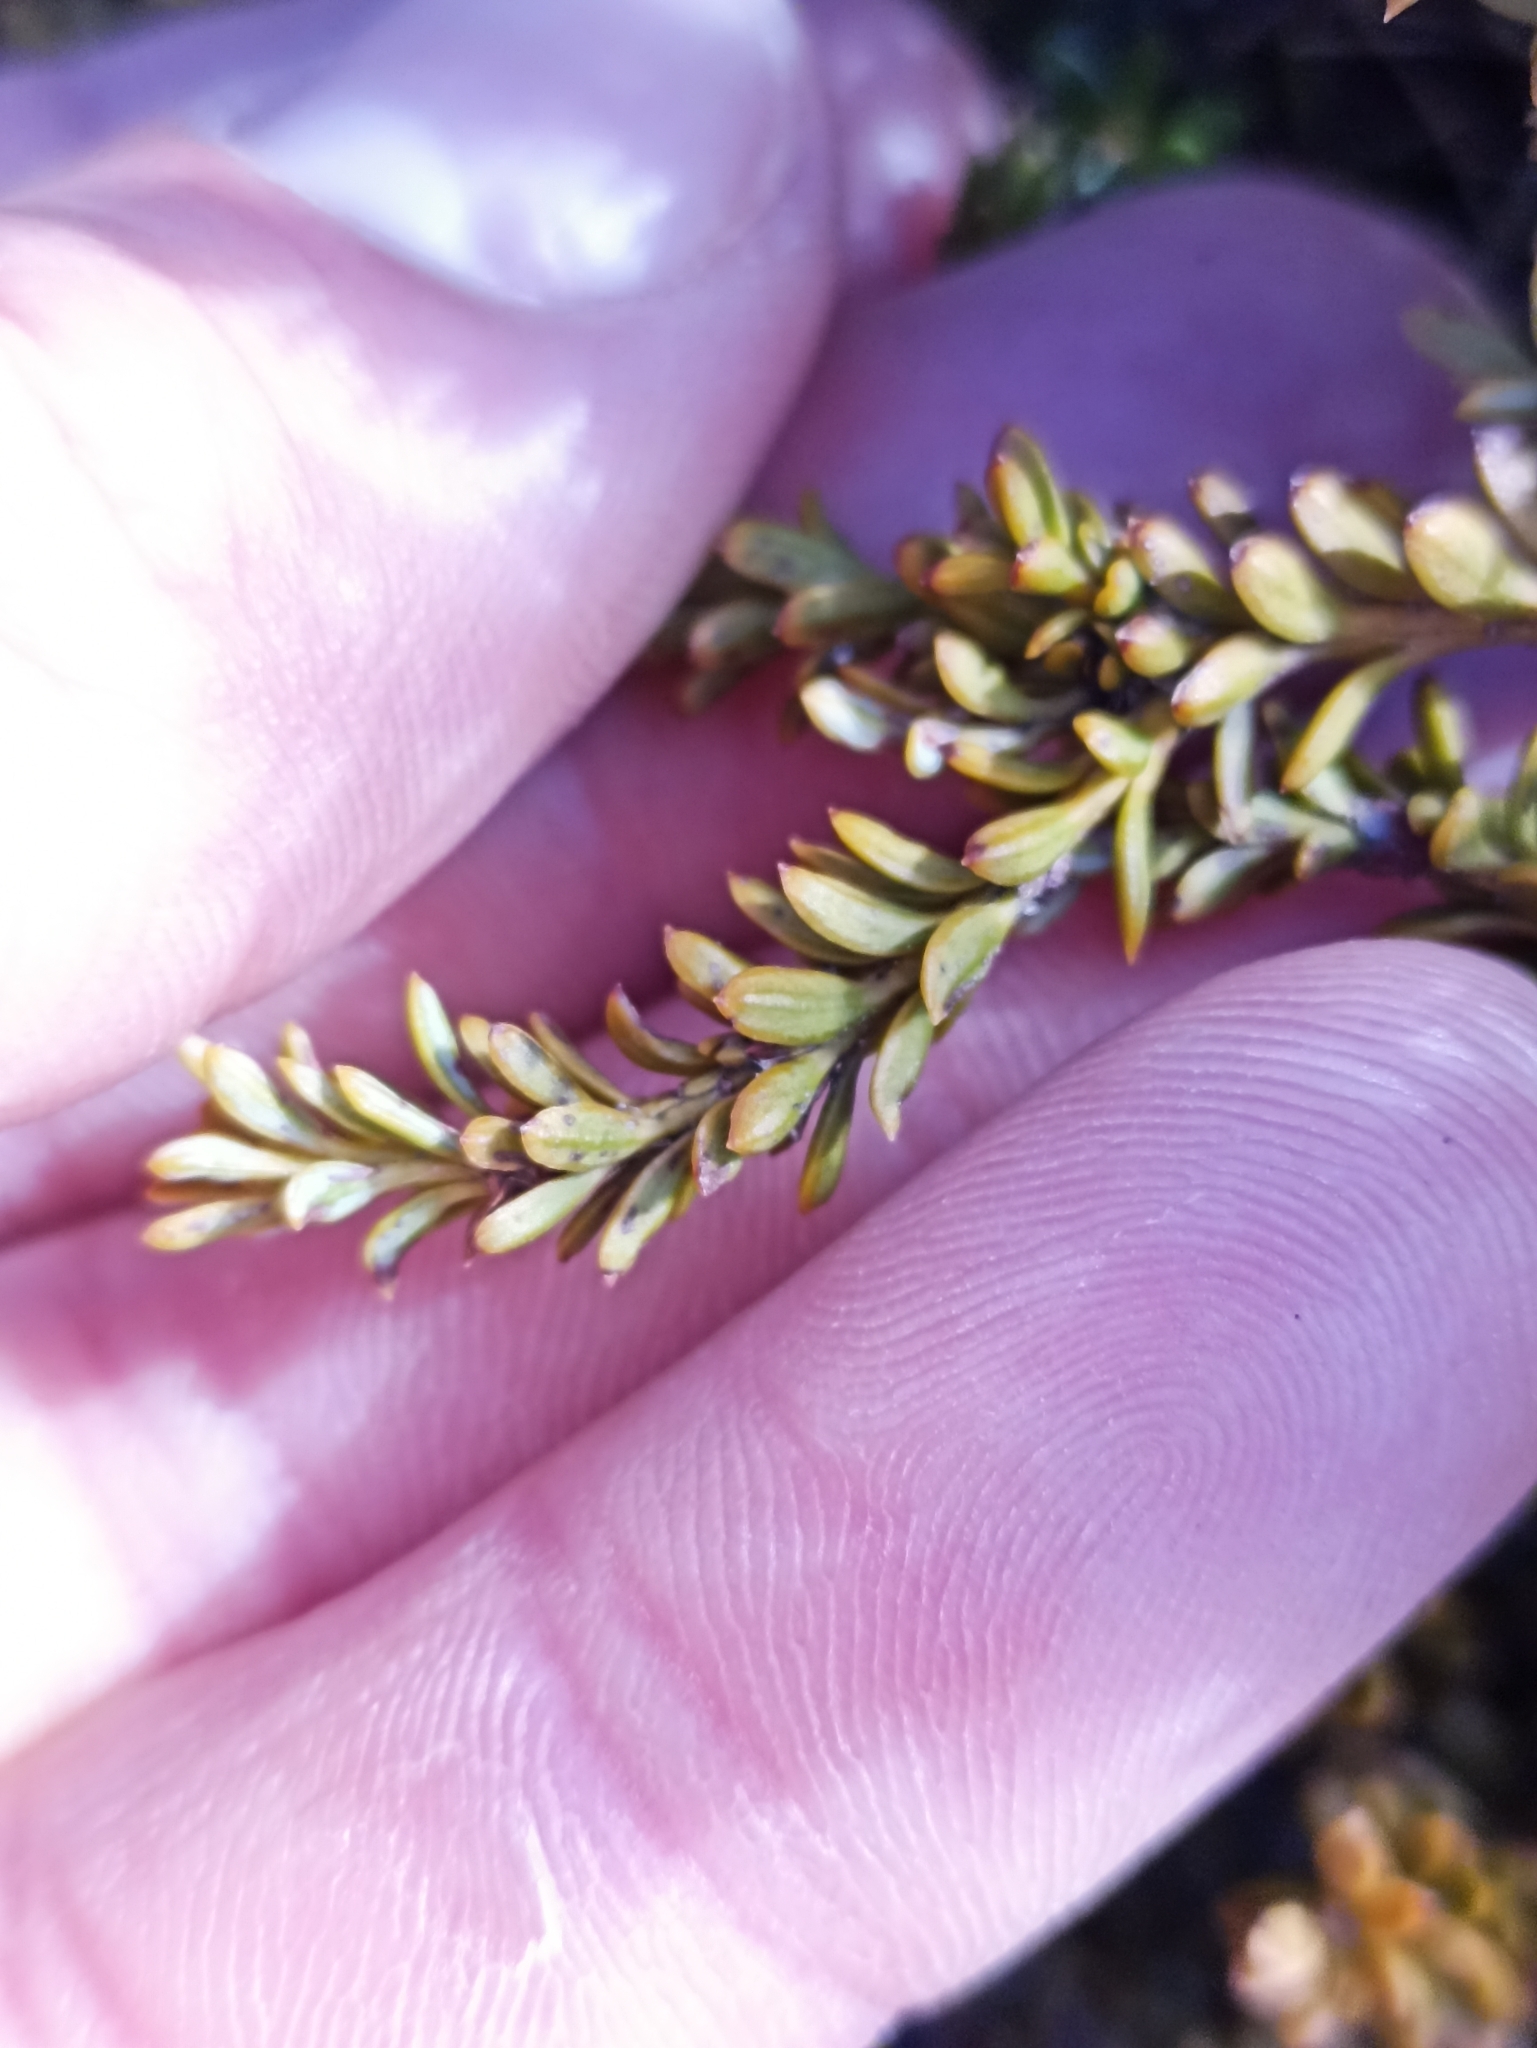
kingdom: Plantae
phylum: Tracheophyta
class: Pinopsida
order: Pinales
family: Podocarpaceae
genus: Podocarpus
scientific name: Podocarpus nivalis
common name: Alpine totara
